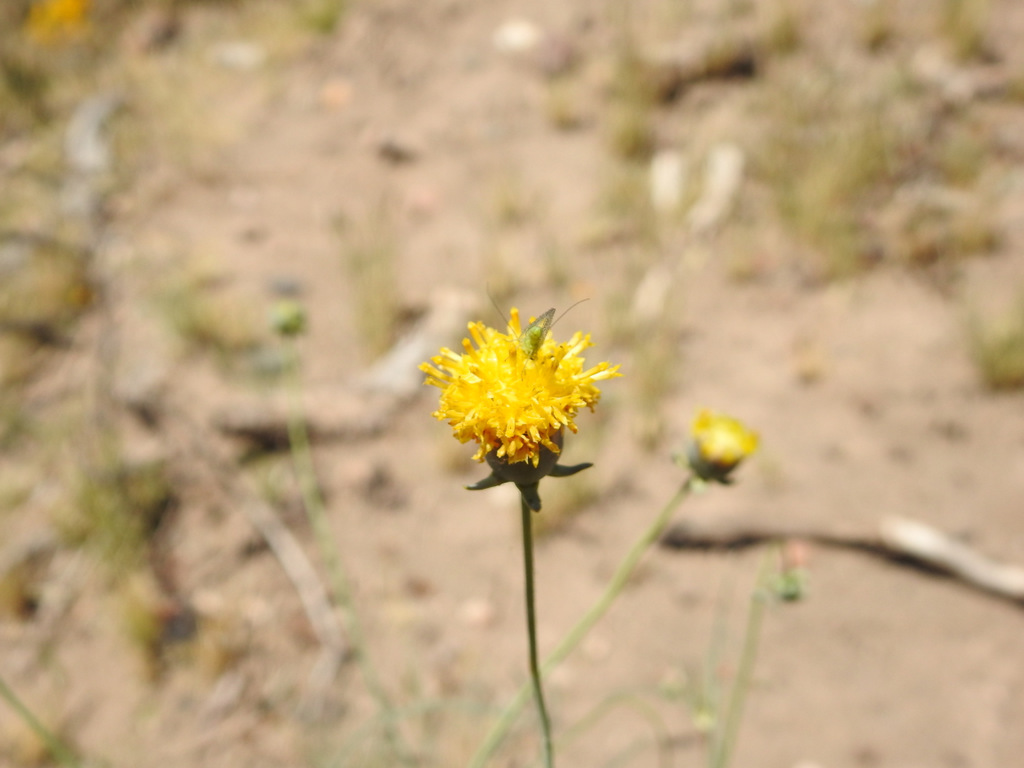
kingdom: Plantae
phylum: Tracheophyta
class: Magnoliopsida
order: Asterales
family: Asteraceae
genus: Thelesperma
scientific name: Thelesperma megapotamicum
